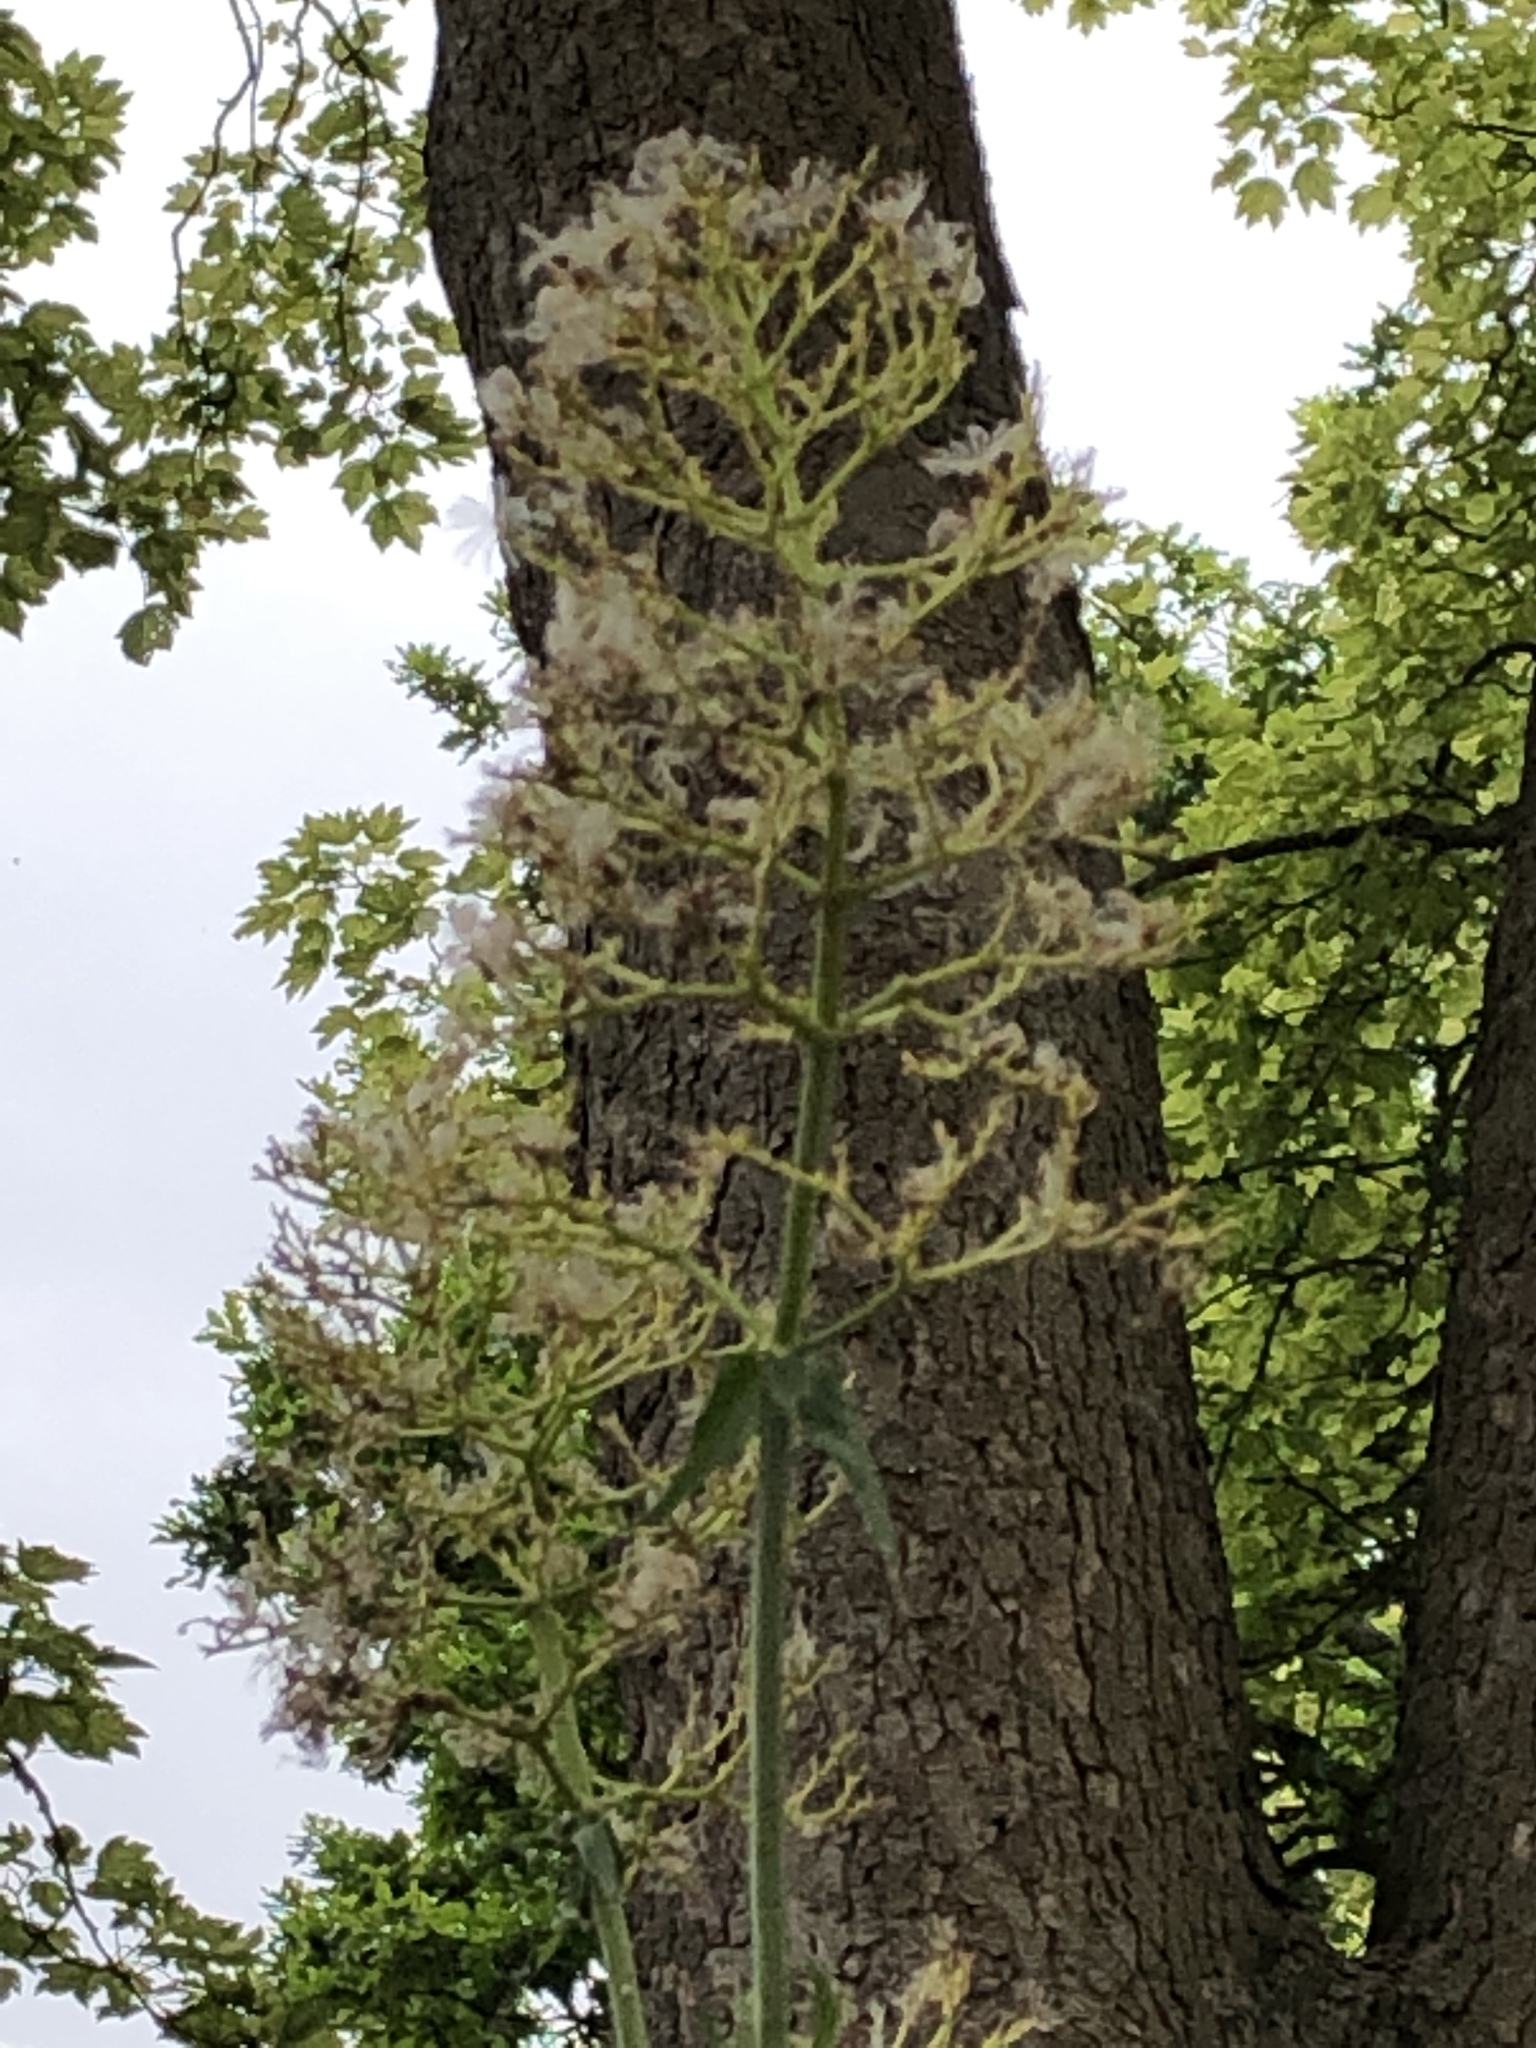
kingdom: Plantae
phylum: Tracheophyta
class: Magnoliopsida
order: Dipsacales
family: Caprifoliaceae
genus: Centranthus
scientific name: Centranthus ruber
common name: Red valerian
